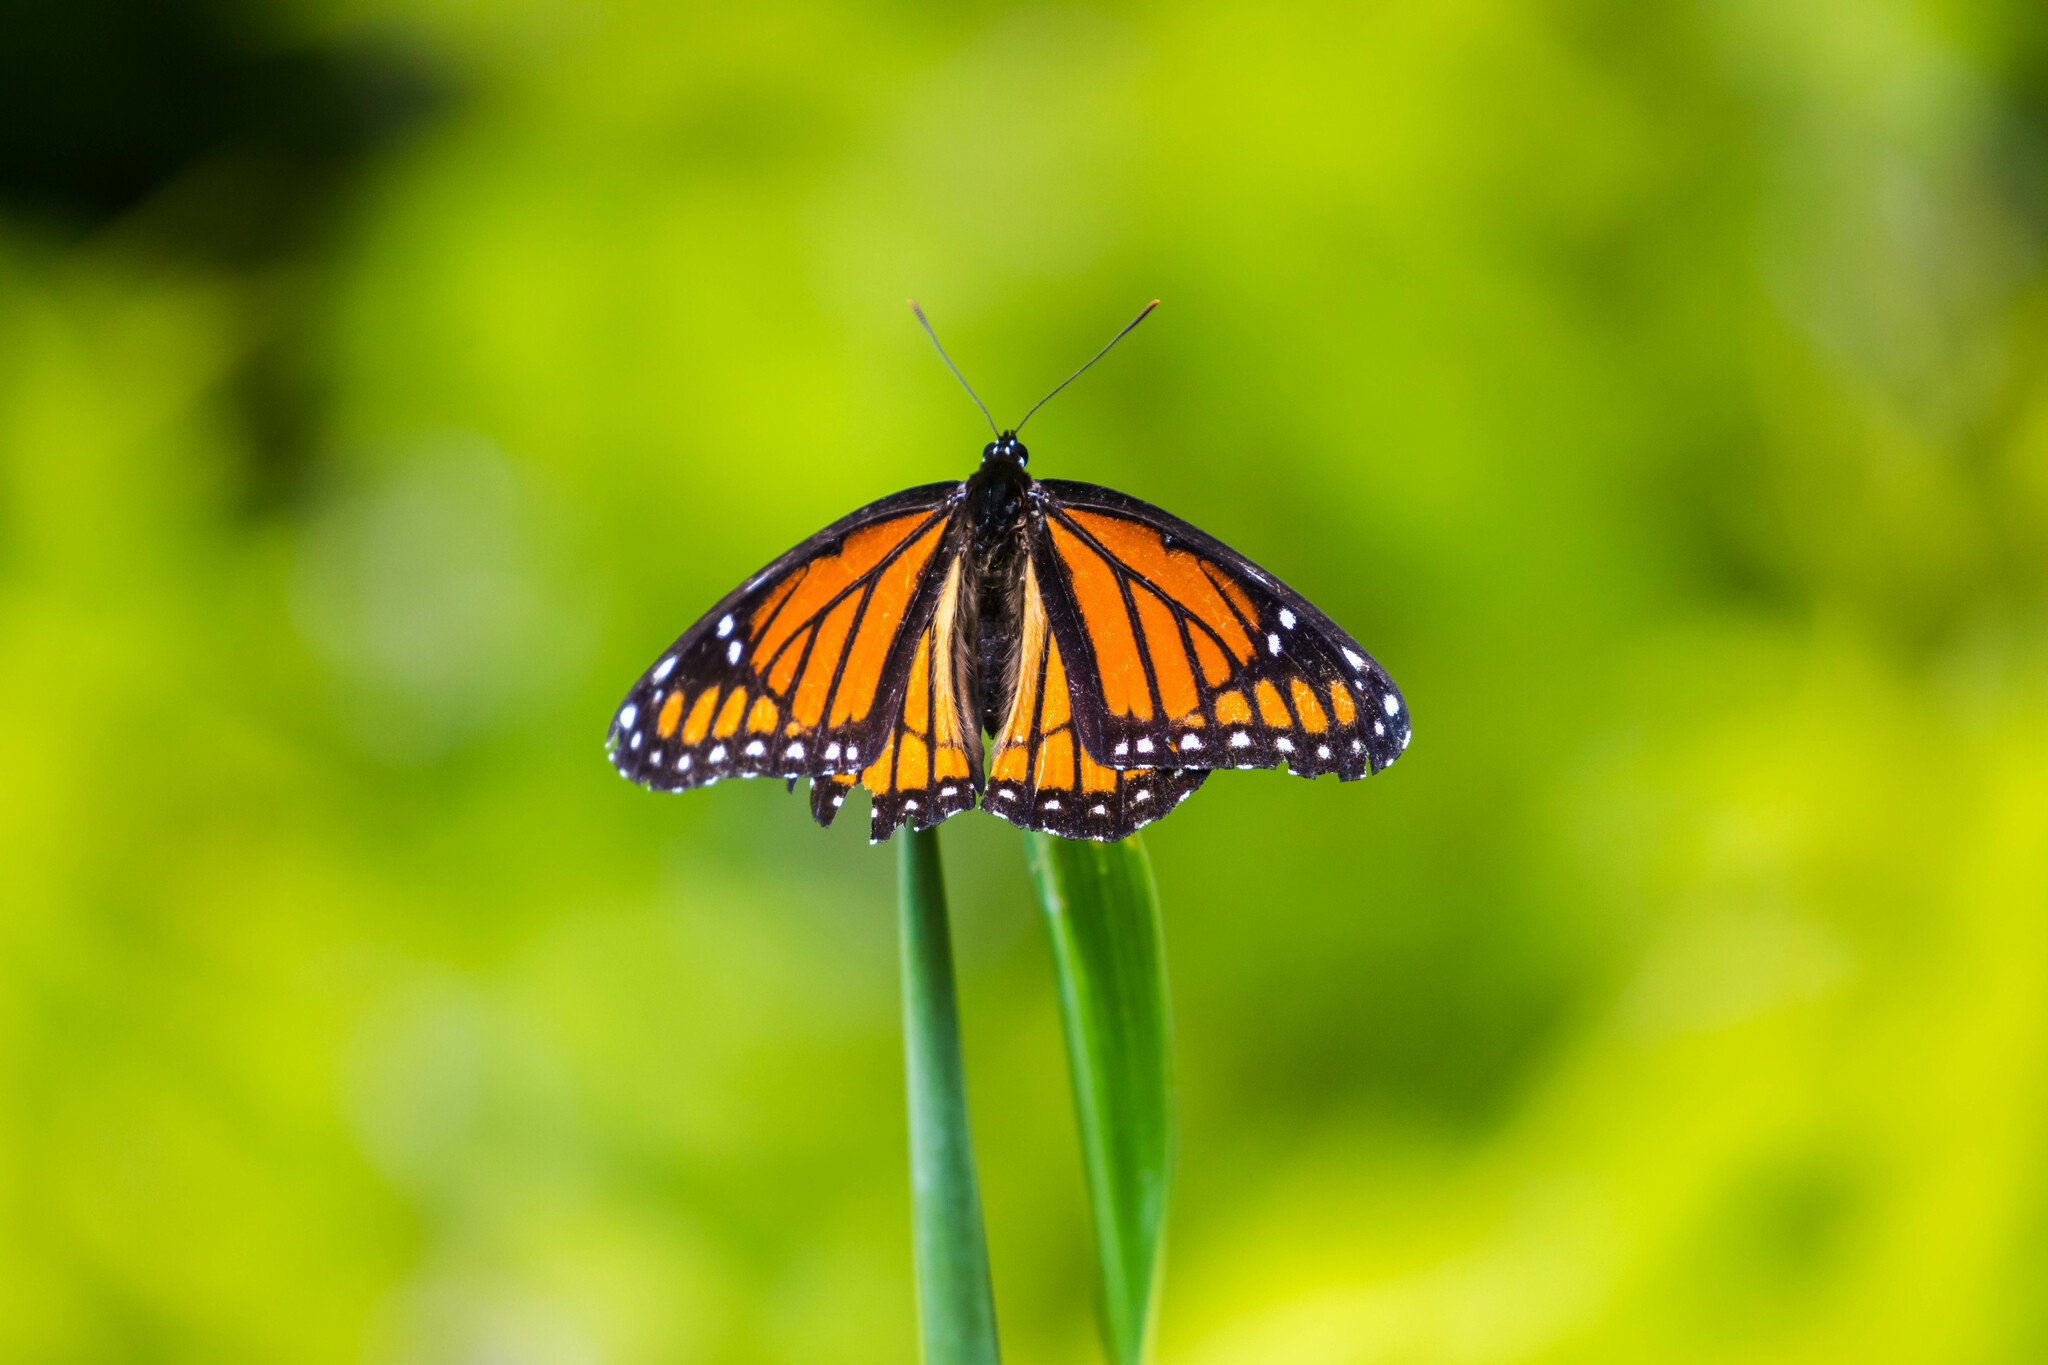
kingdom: Animalia
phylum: Arthropoda
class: Insecta
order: Lepidoptera
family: Nymphalidae
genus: Limenitis
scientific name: Limenitis archippus
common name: Viceroy
